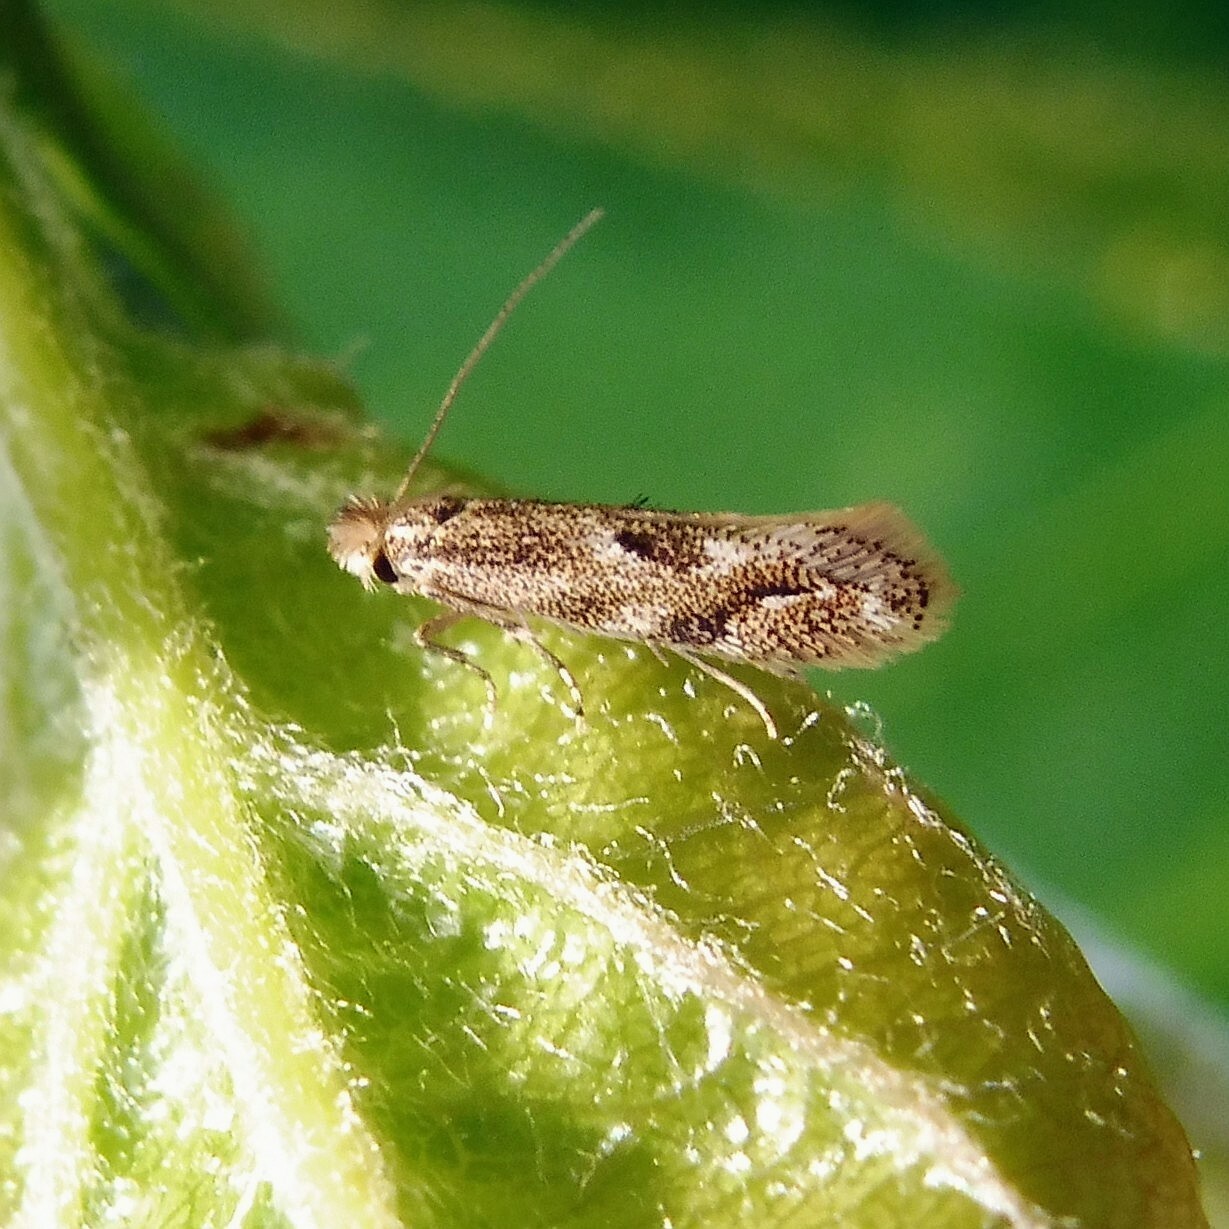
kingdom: Animalia
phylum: Arthropoda
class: Insecta
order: Lepidoptera
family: Bucculatricidae
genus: Bucculatrix
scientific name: Bucculatrix bechsteinella
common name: Hawthorn bent-wing
